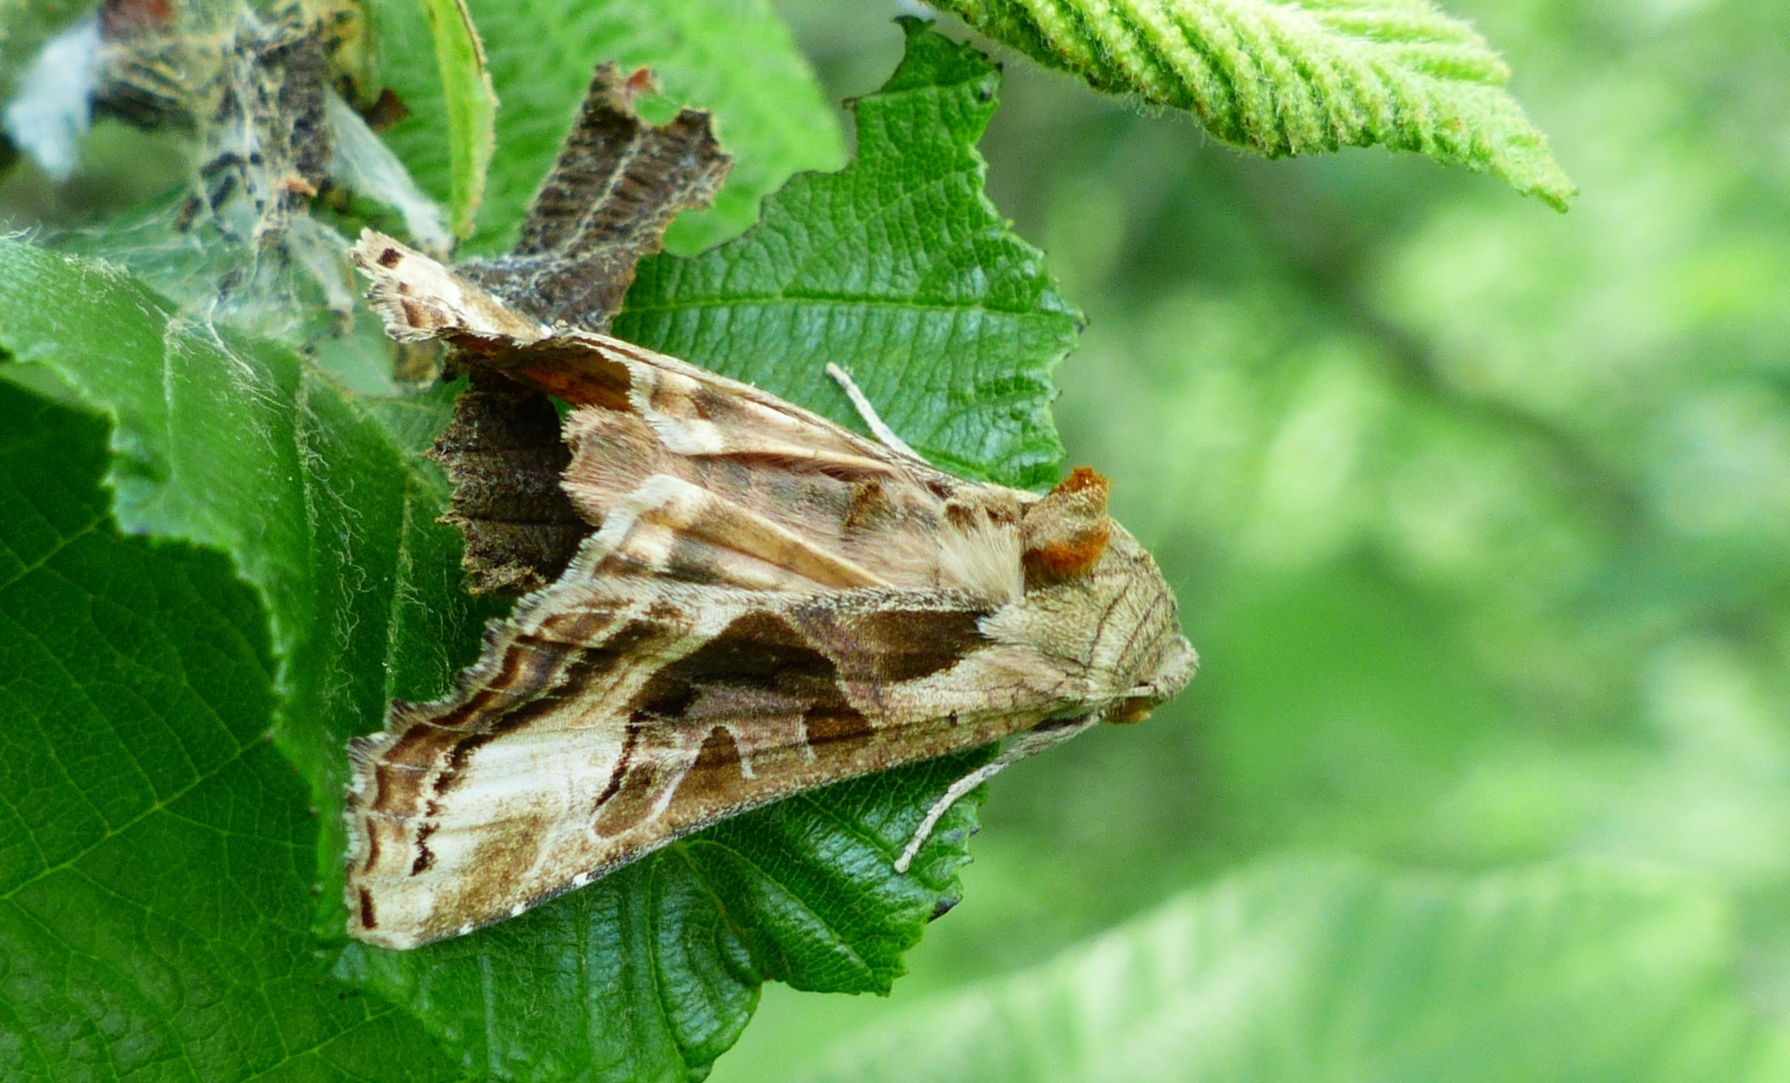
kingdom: Animalia
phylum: Arthropoda
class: Insecta
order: Lepidoptera
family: Noctuidae
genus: Phlogophora
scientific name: Phlogophora iris
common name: Olive angle shades
